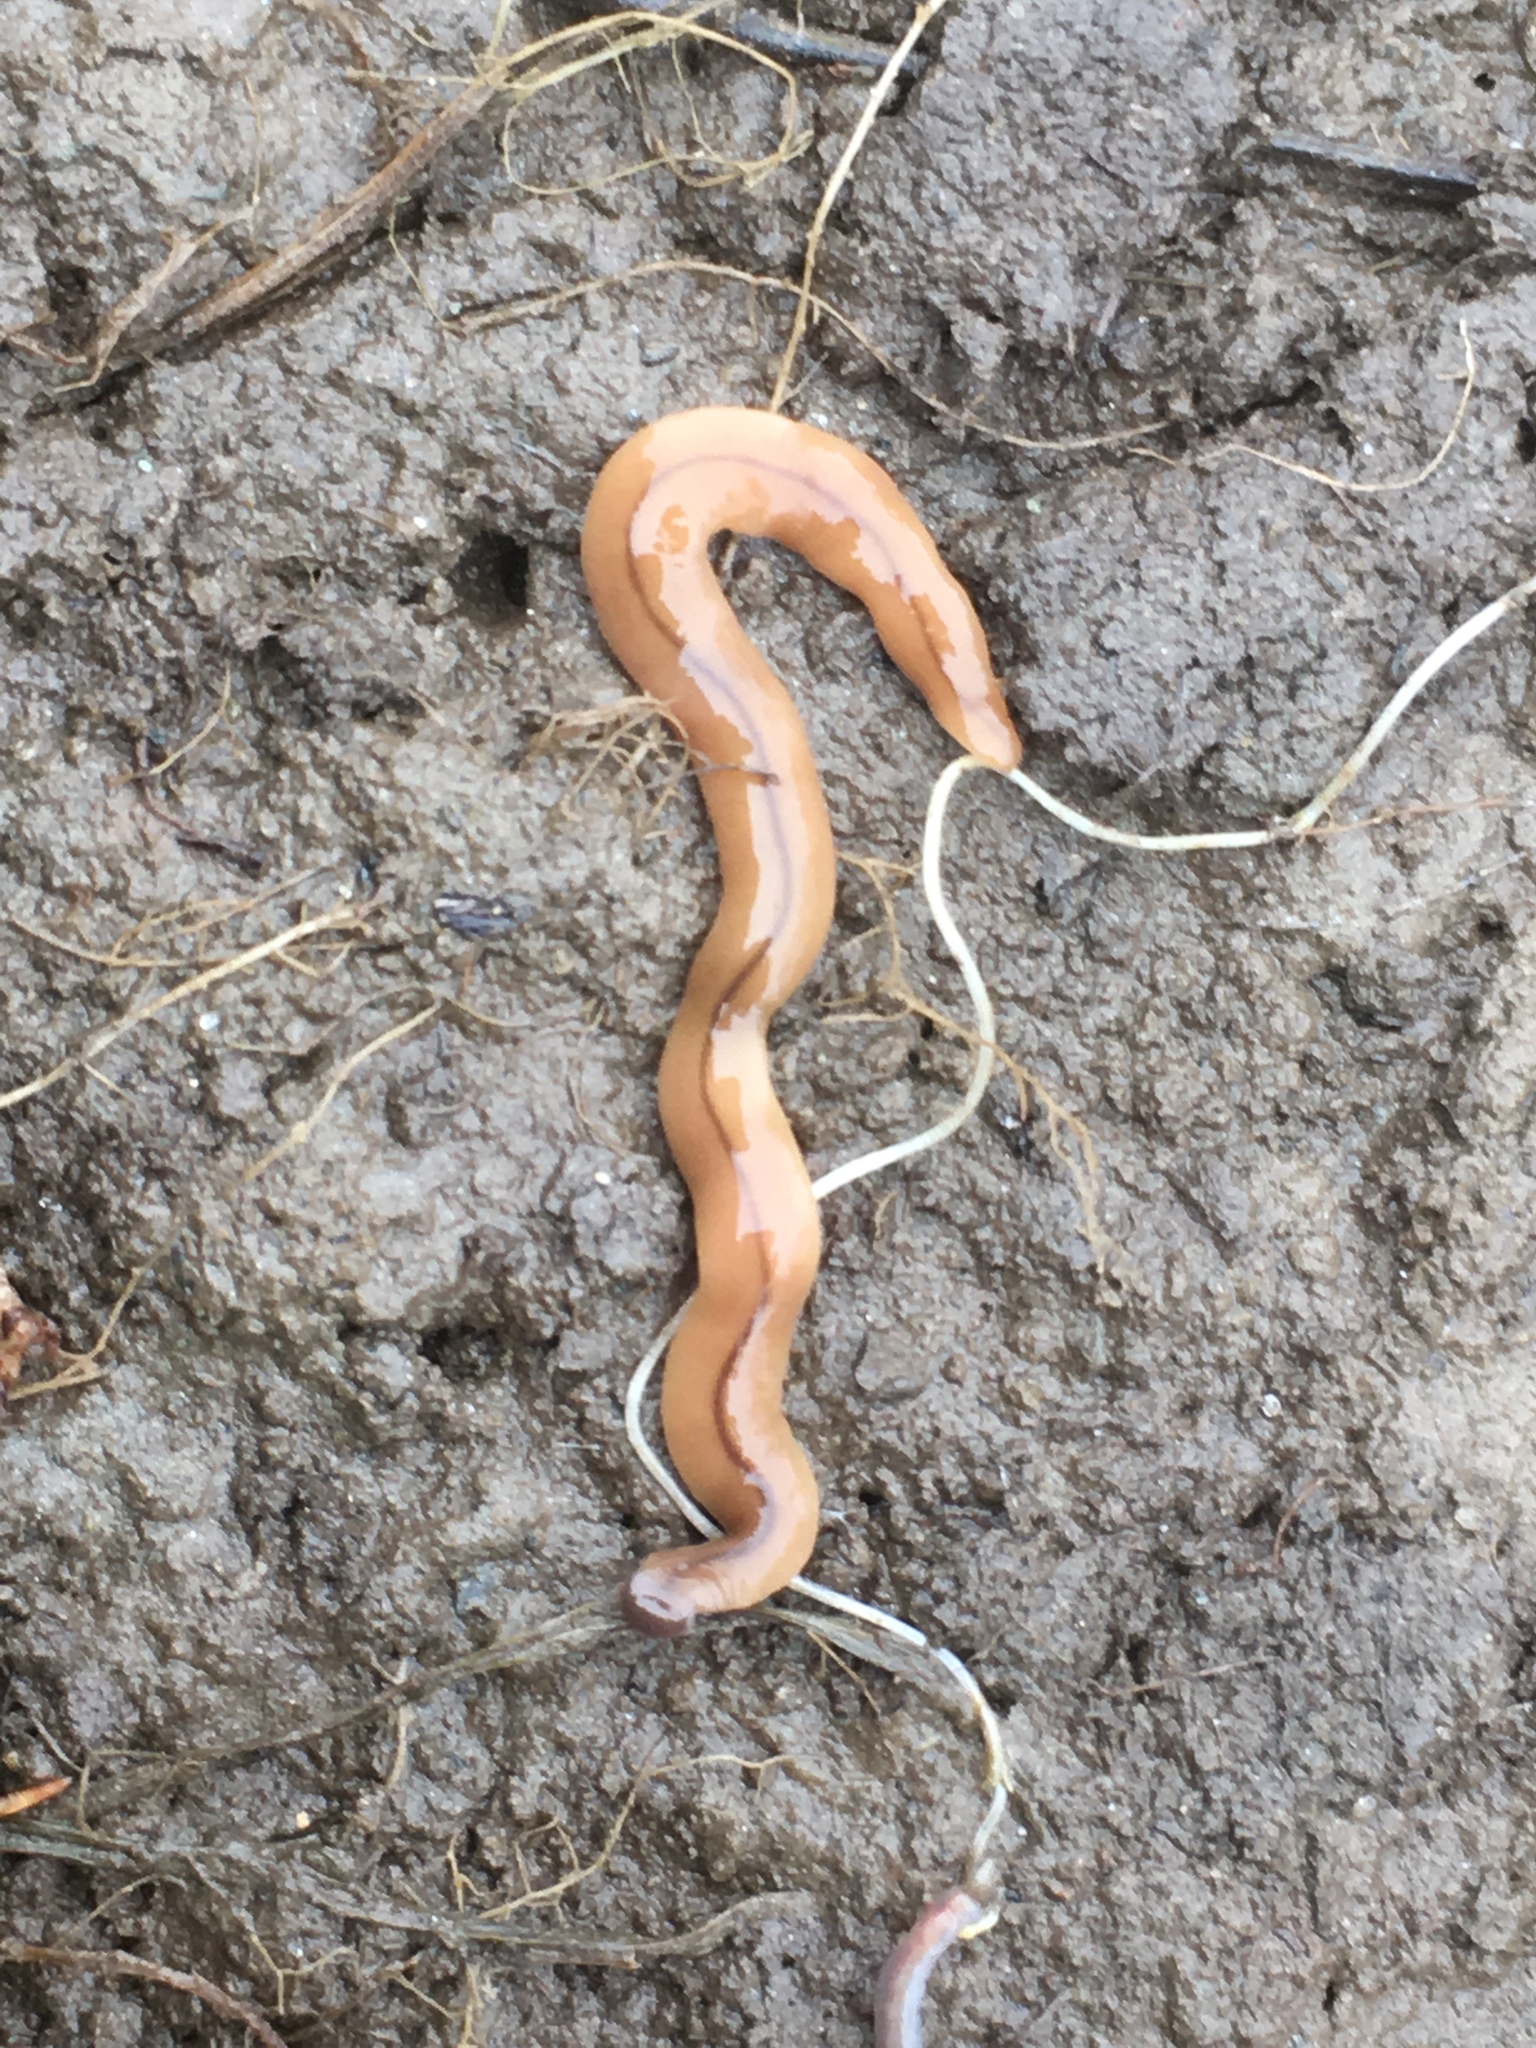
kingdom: Animalia
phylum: Platyhelminthes
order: Tricladida
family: Geoplanidae
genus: Bipalium
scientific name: Bipalium adventitium
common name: Land planarian
